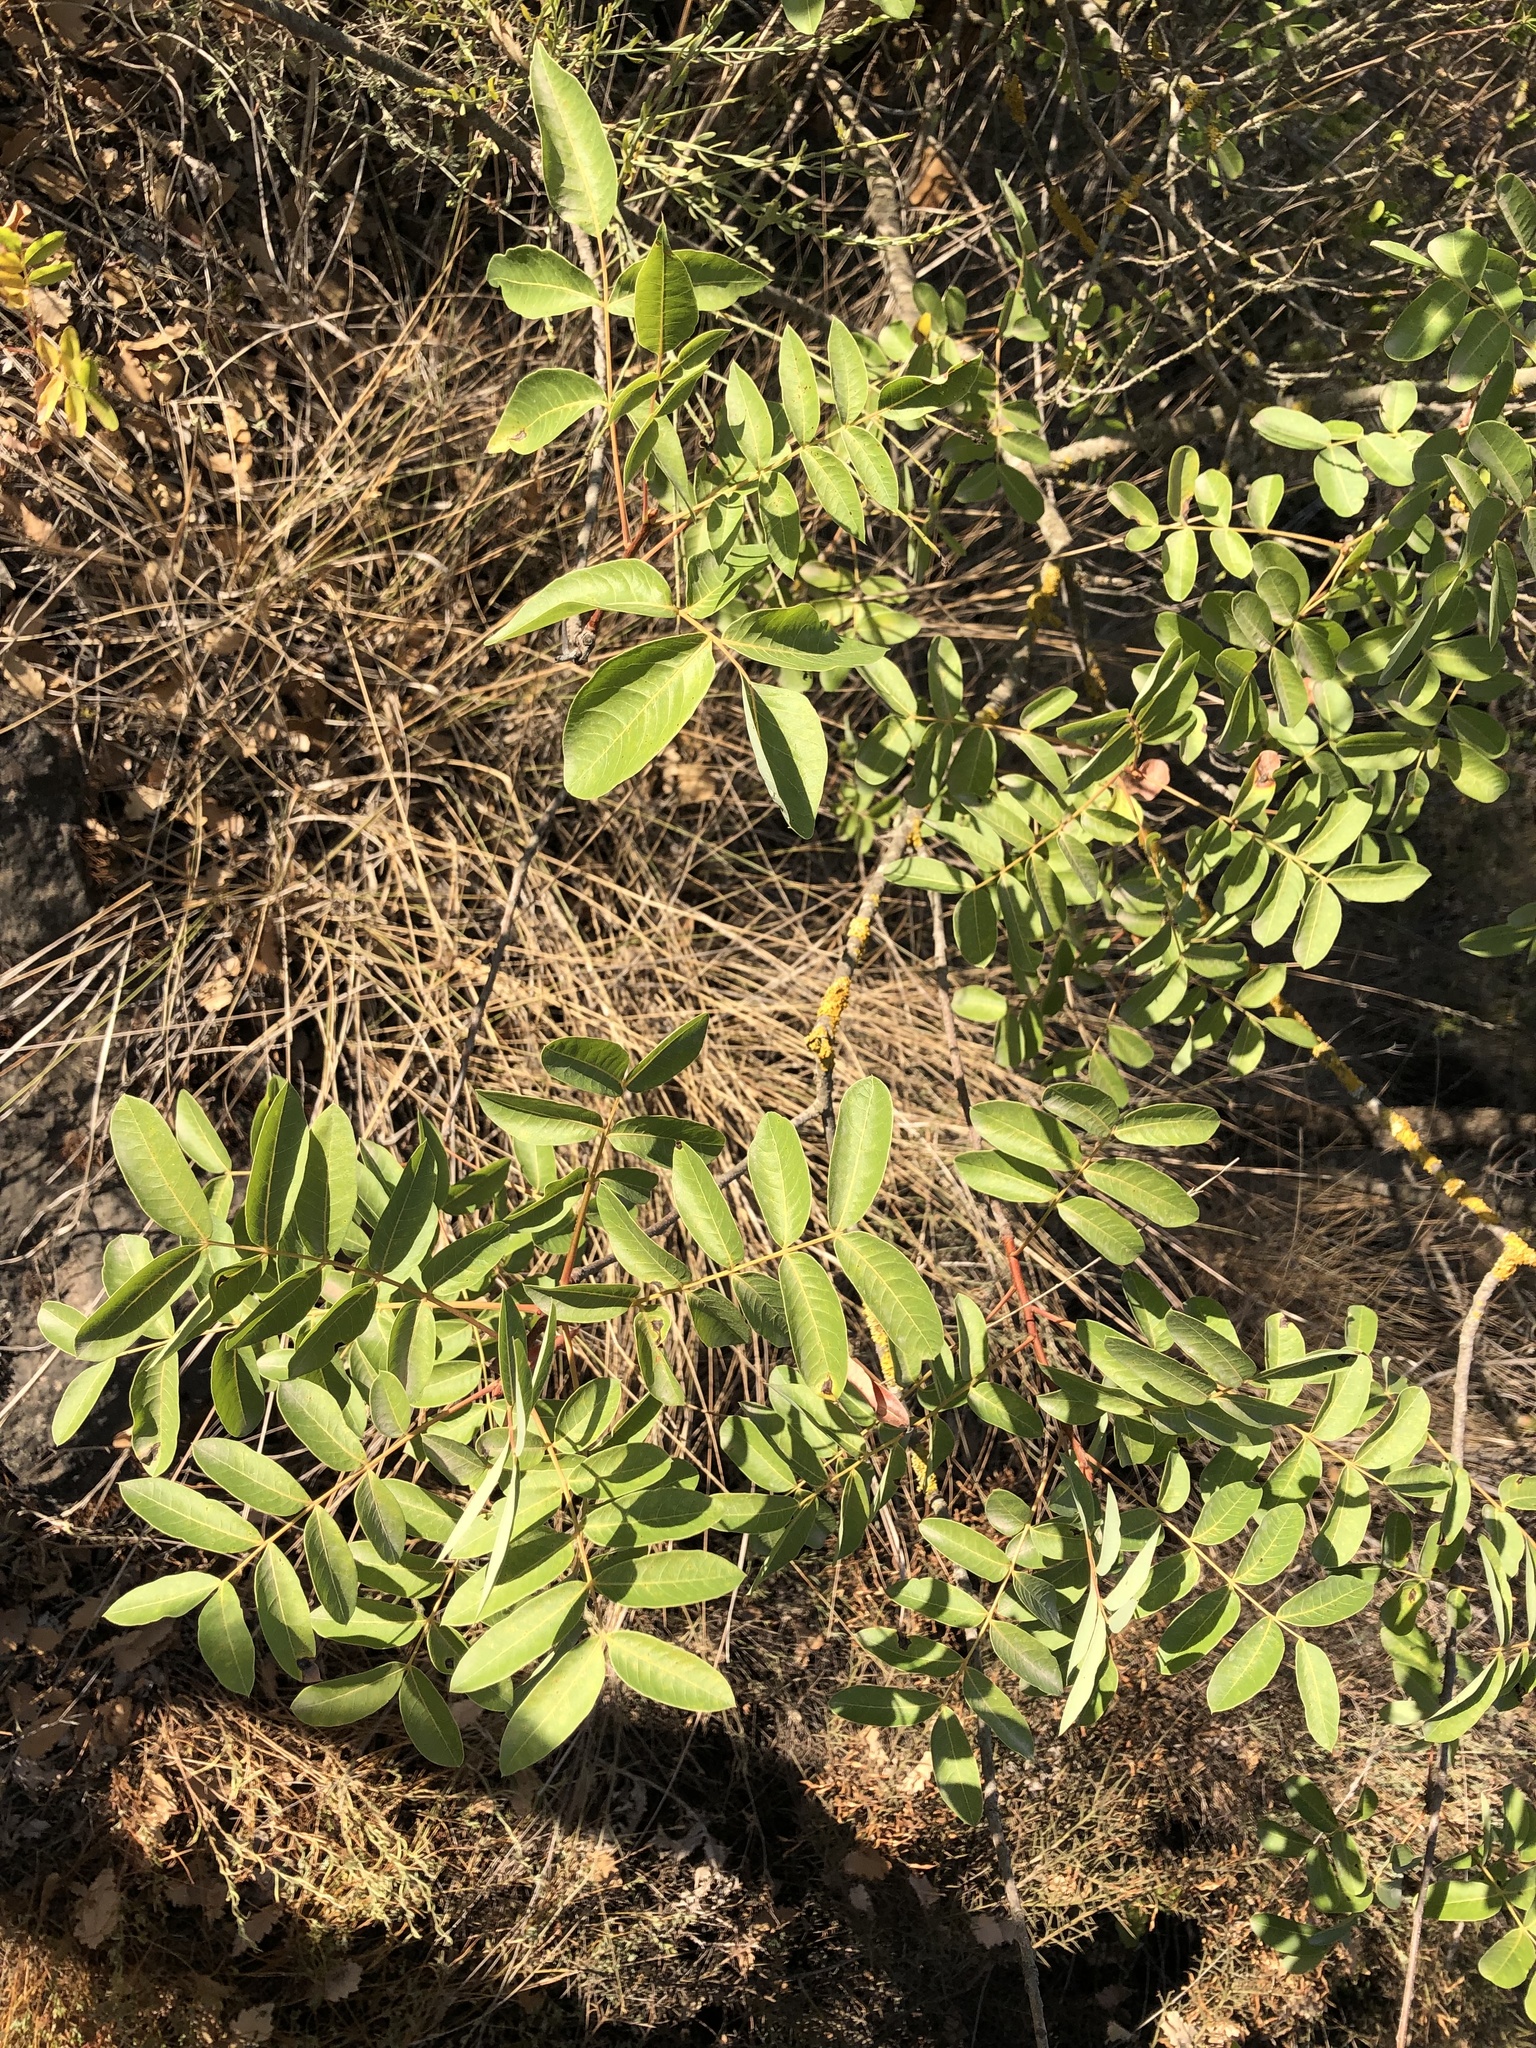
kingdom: Plantae
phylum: Tracheophyta
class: Magnoliopsida
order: Sapindales
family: Anacardiaceae
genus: Pistacia
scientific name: Pistacia saportae
